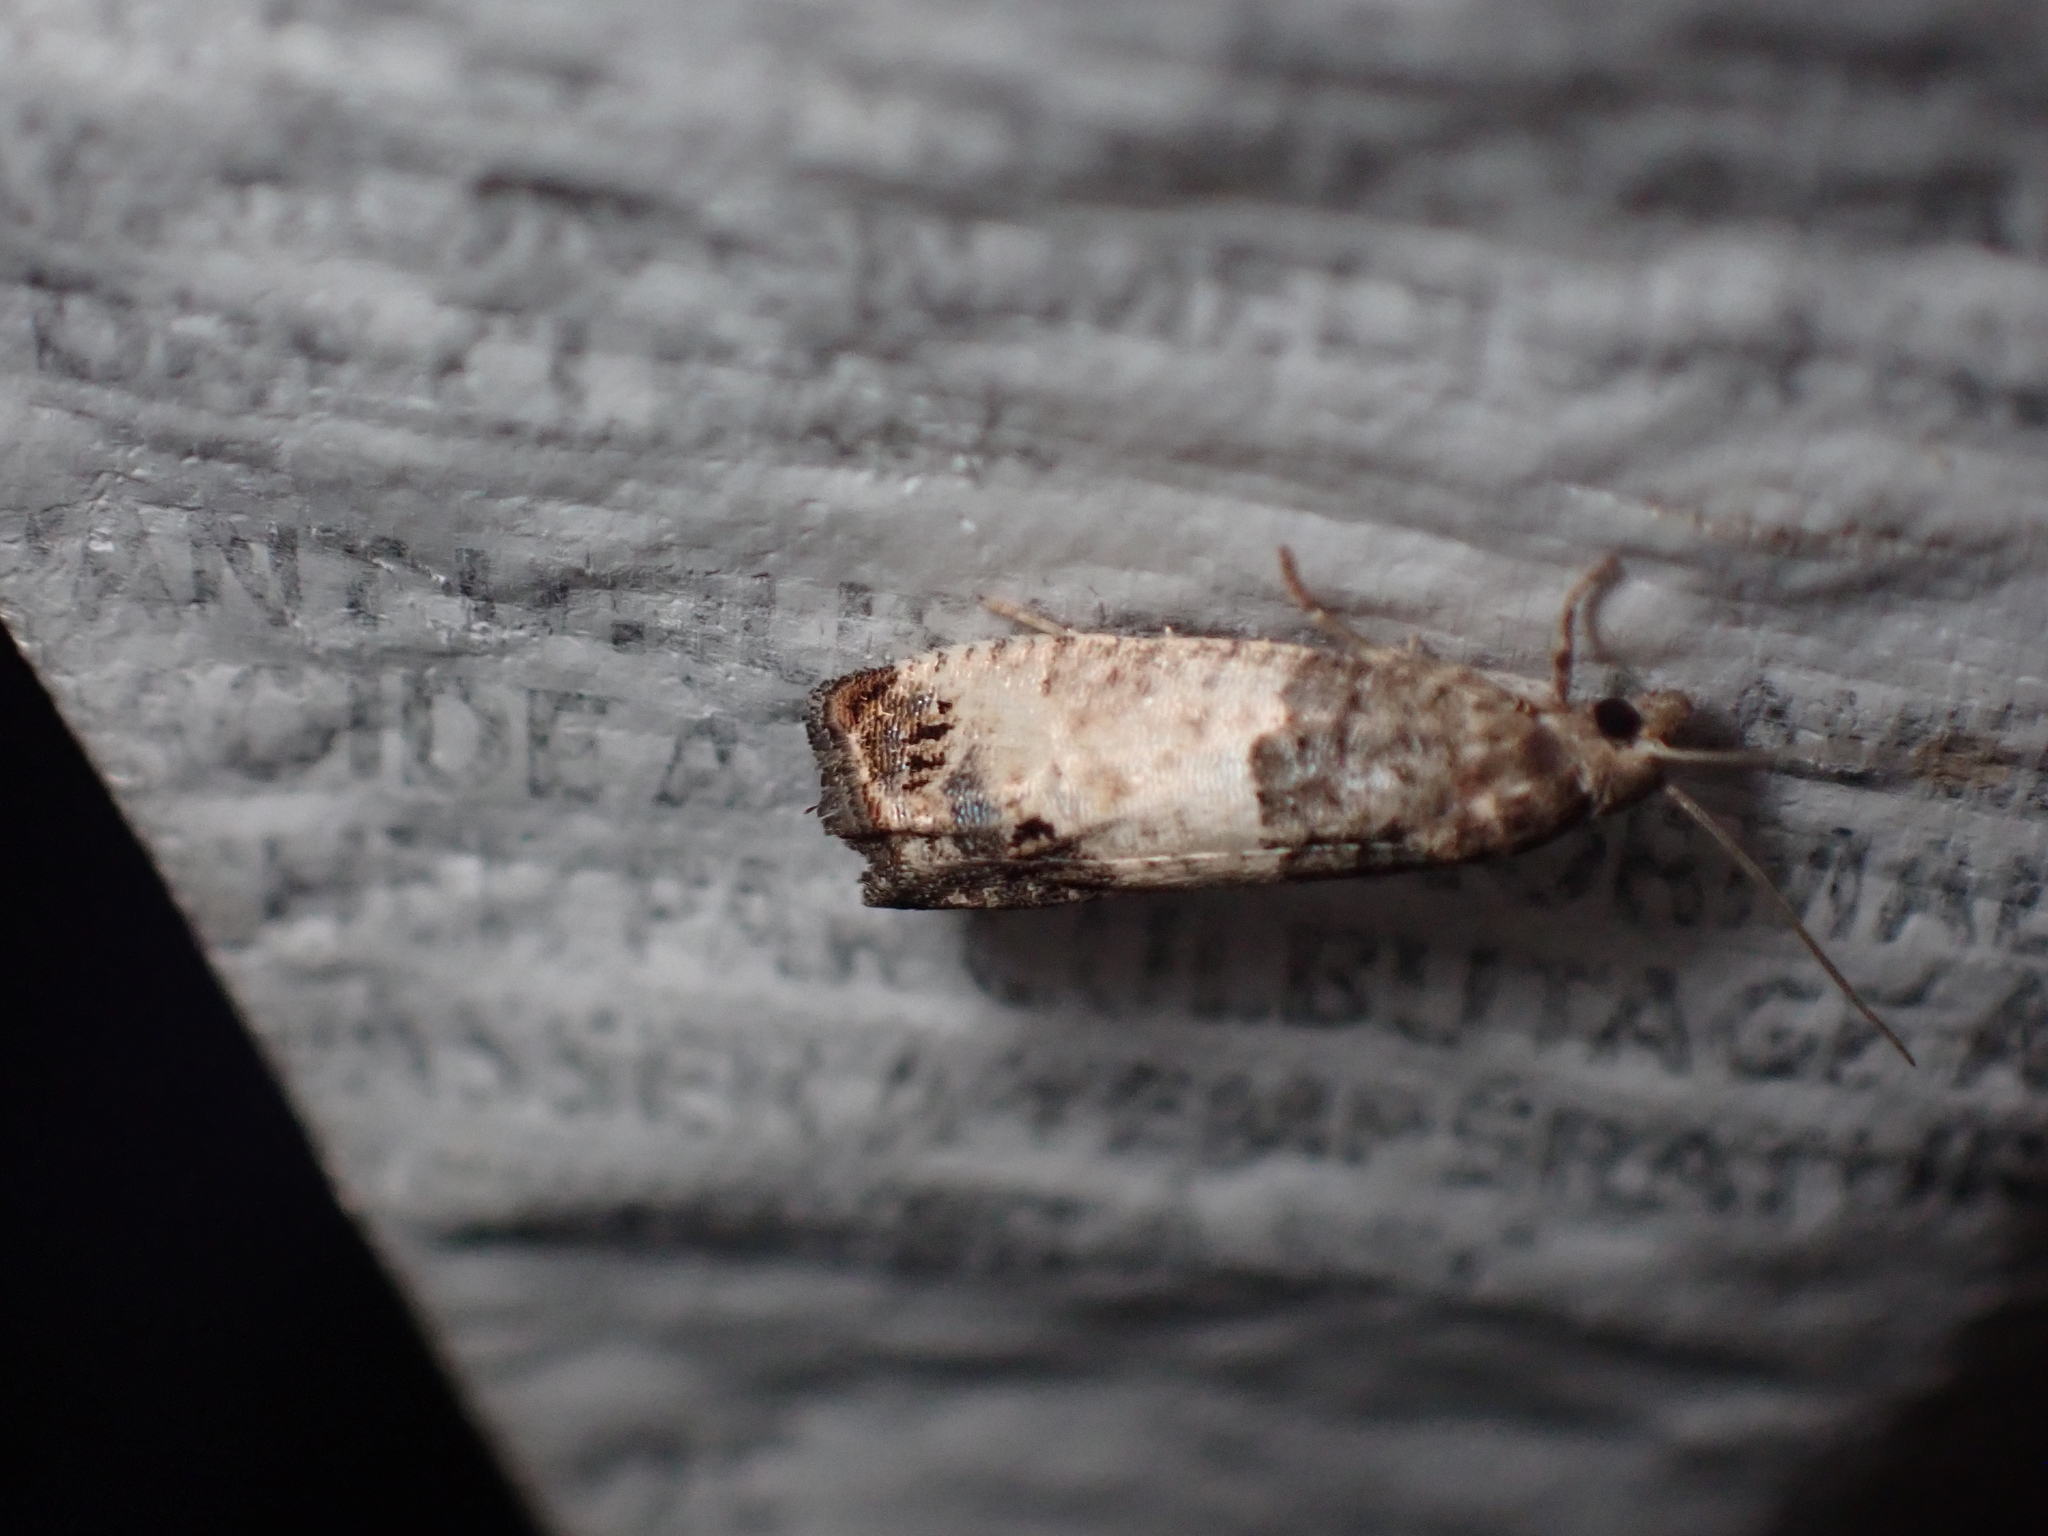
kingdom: Animalia
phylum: Arthropoda
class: Insecta
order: Lepidoptera
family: Tortricidae
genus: Spilonota
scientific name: Spilonota ocellana
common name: Bud moth
